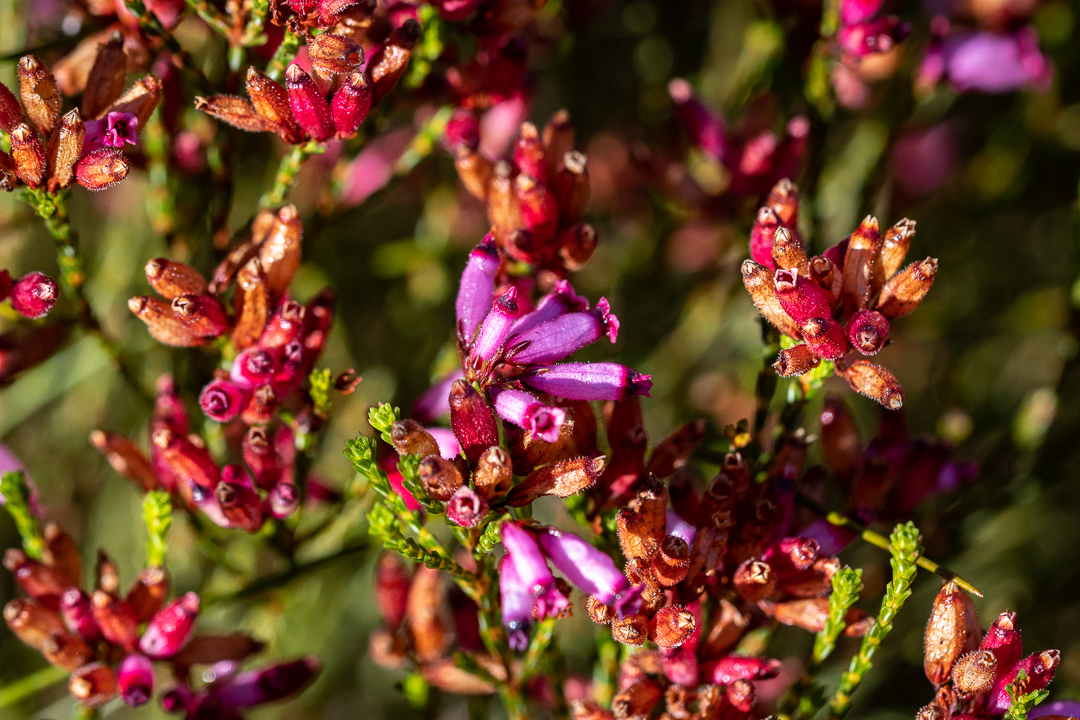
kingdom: Plantae
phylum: Tracheophyta
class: Magnoliopsida
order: Ericales
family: Ericaceae
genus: Erica
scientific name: Erica cristata
